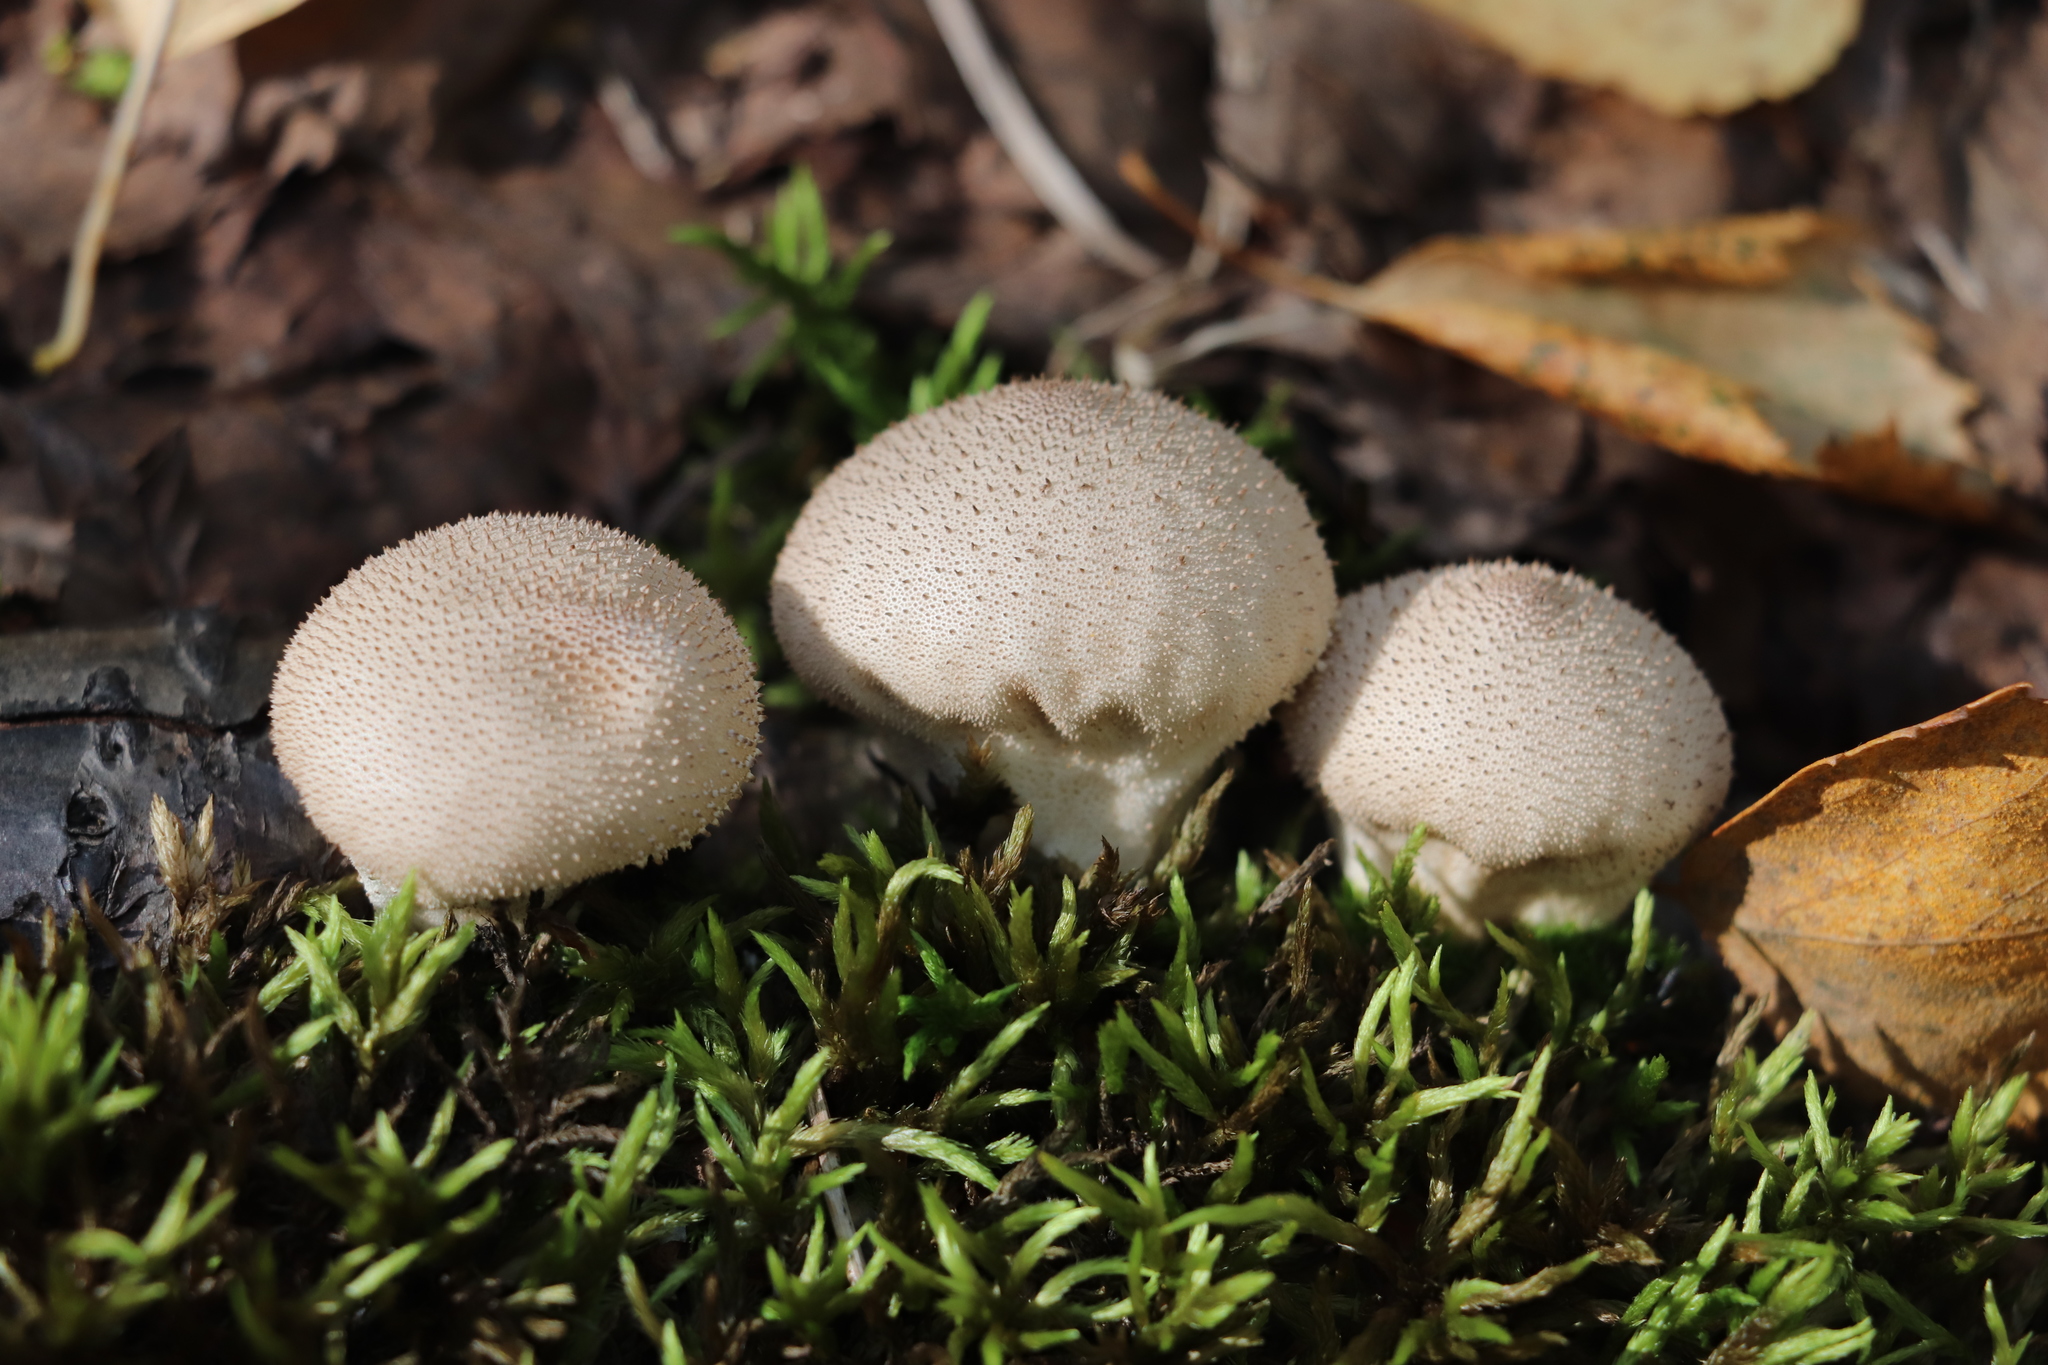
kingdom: Fungi
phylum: Basidiomycota
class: Agaricomycetes
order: Agaricales
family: Lycoperdaceae
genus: Lycoperdon
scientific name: Lycoperdon perlatum
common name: Common puffball
